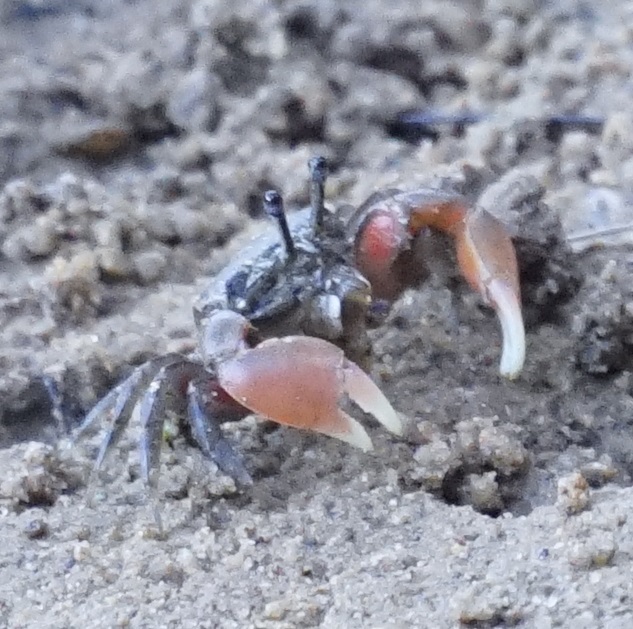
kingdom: Animalia
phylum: Arthropoda
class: Malacostraca
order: Decapoda
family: Heloeciidae
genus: Heloecius
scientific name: Heloecius cordiformis
